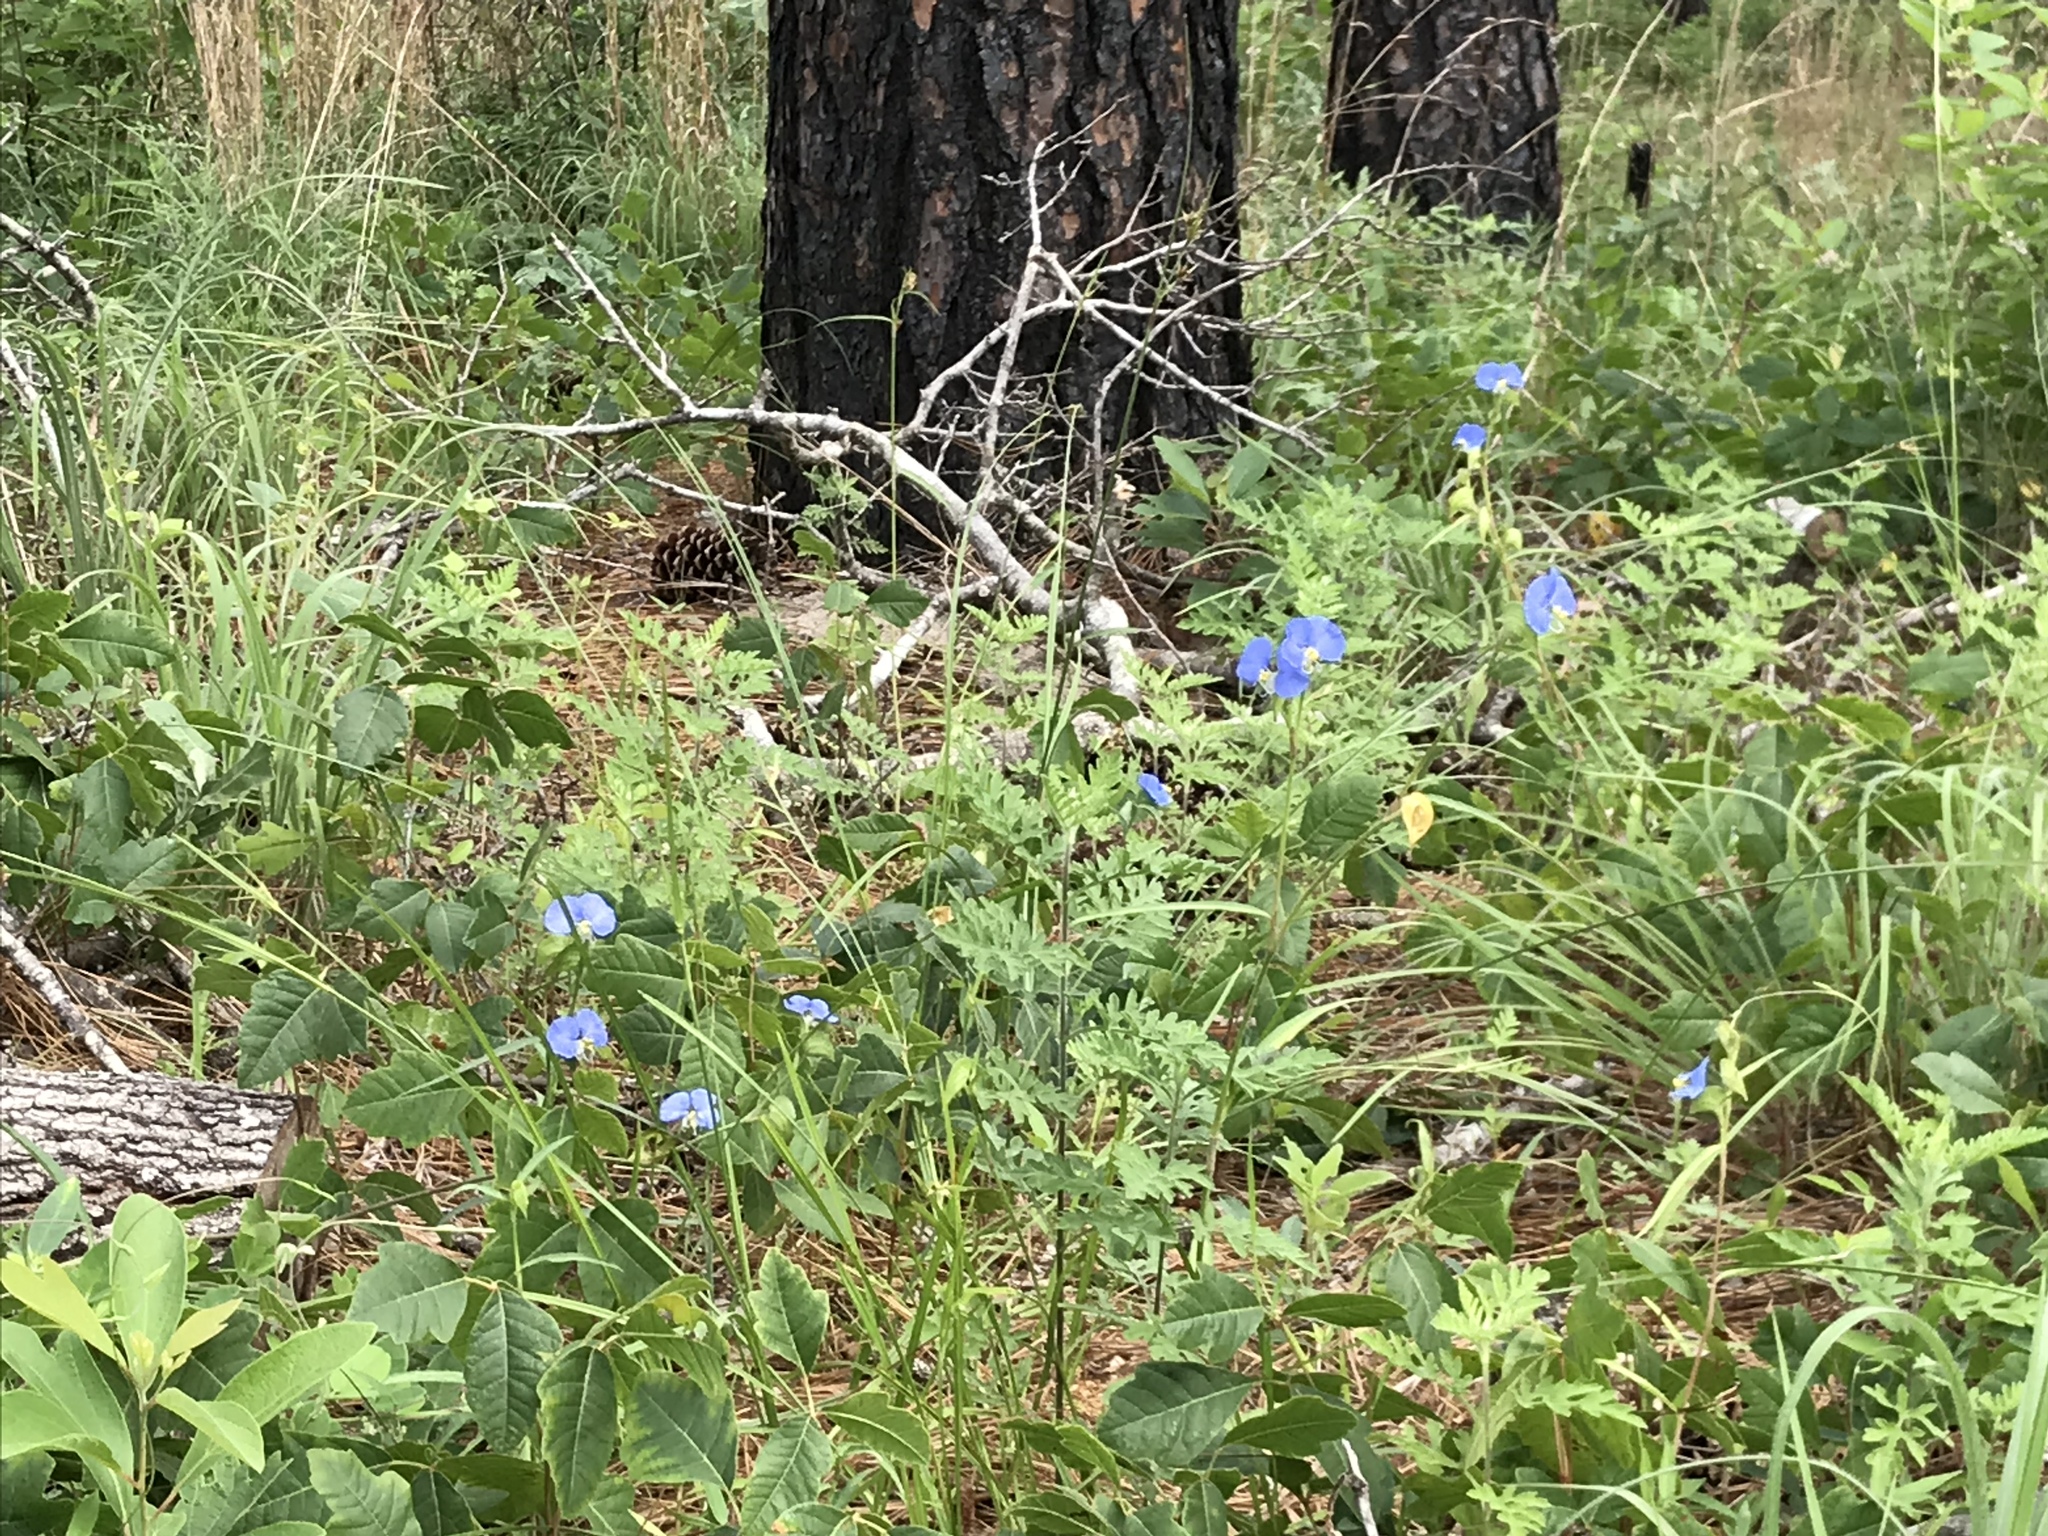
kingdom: Plantae
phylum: Tracheophyta
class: Liliopsida
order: Commelinales
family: Commelinaceae
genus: Commelina
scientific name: Commelina erecta
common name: Blousel blommetjie
